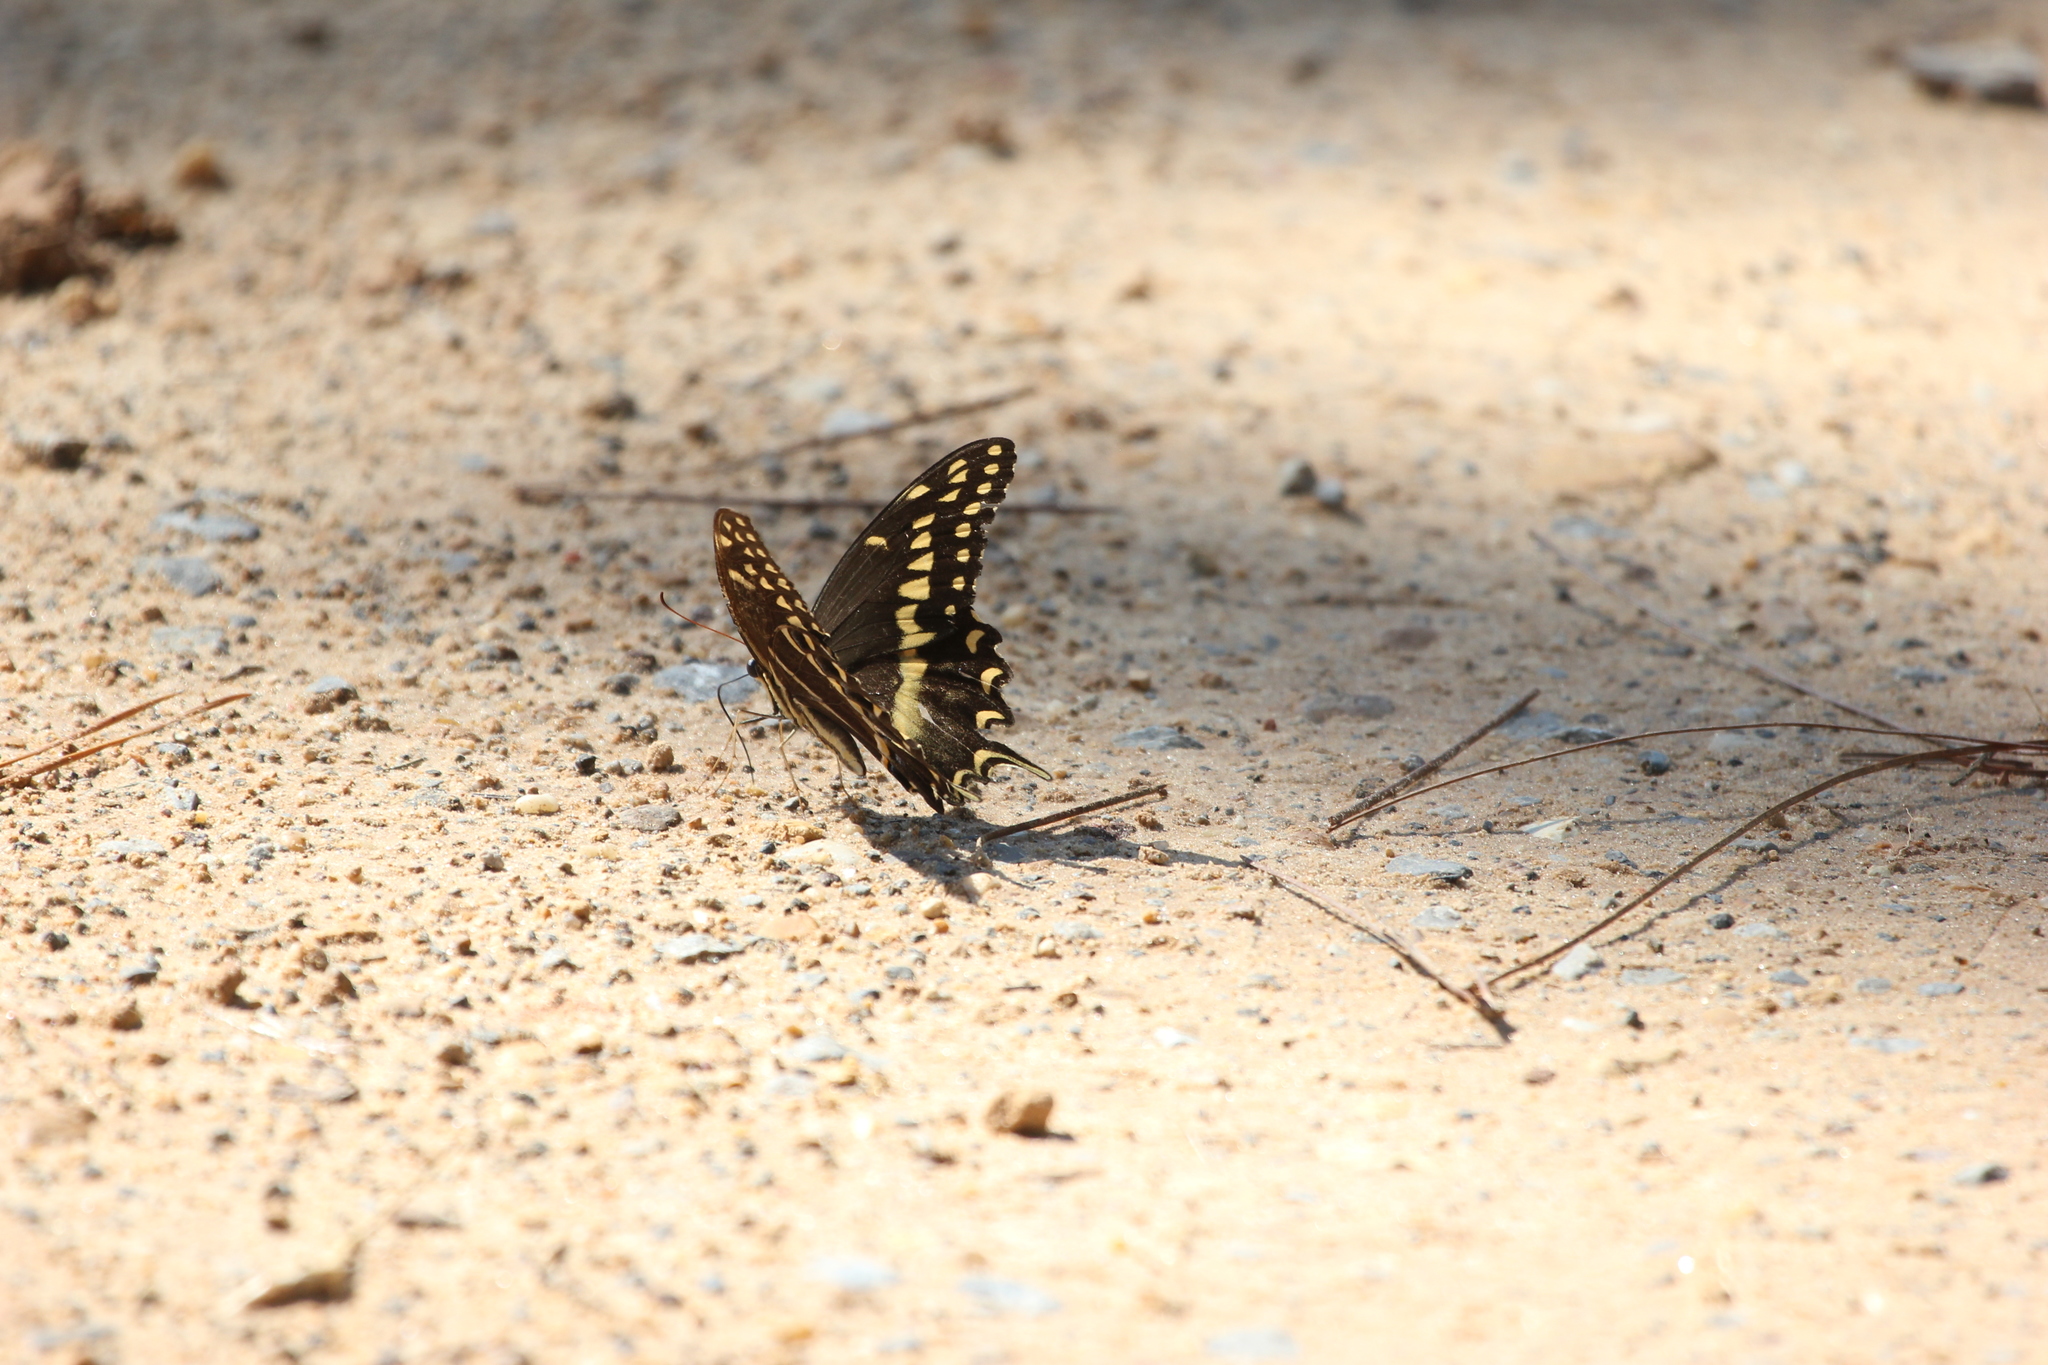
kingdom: Animalia
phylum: Arthropoda
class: Insecta
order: Lepidoptera
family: Papilionidae
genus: Papilio
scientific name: Papilio palamedes
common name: Palamedes swallowtail
